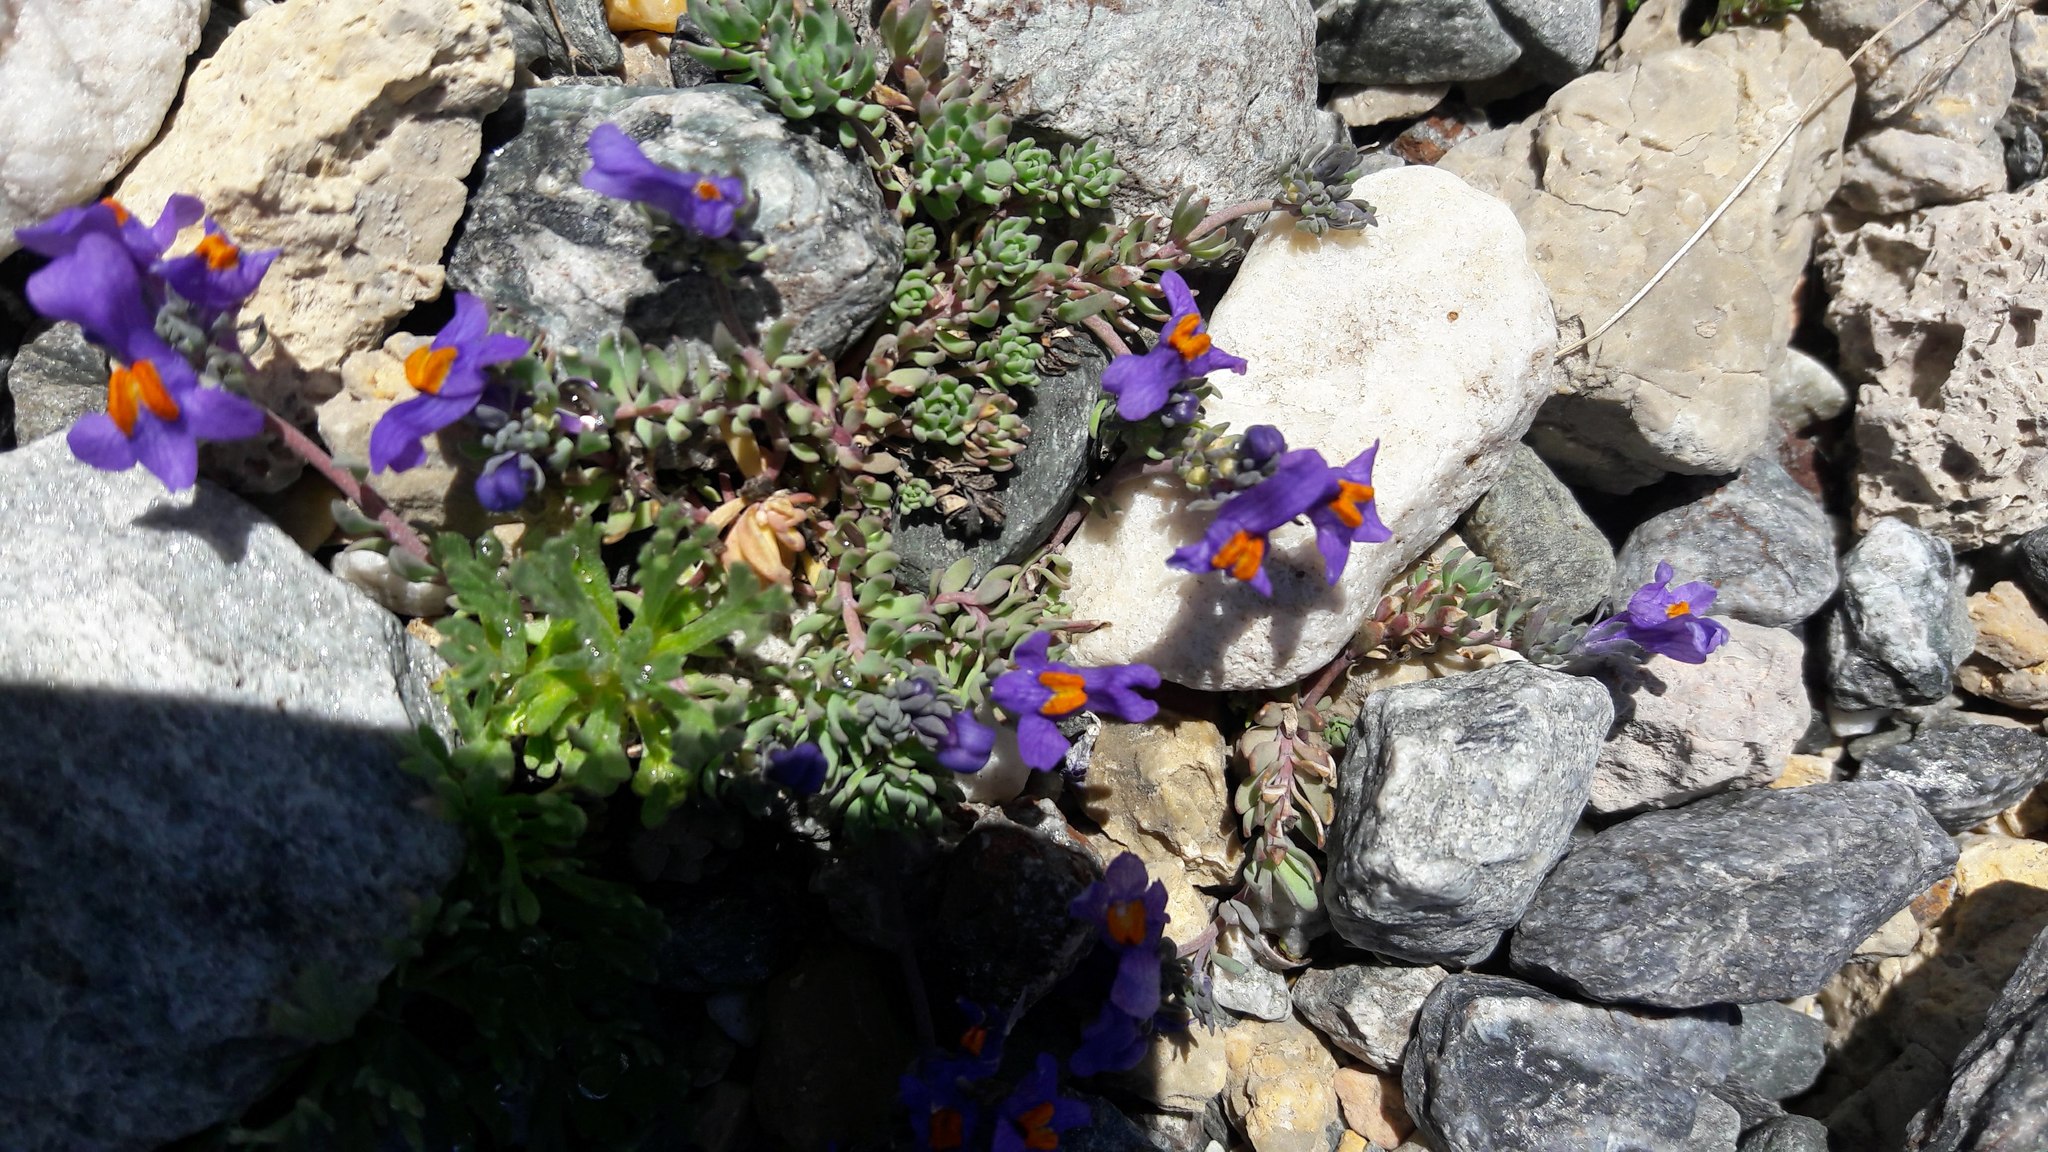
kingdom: Plantae
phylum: Tracheophyta
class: Magnoliopsida
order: Lamiales
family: Plantaginaceae
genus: Linaria
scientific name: Linaria alpina
